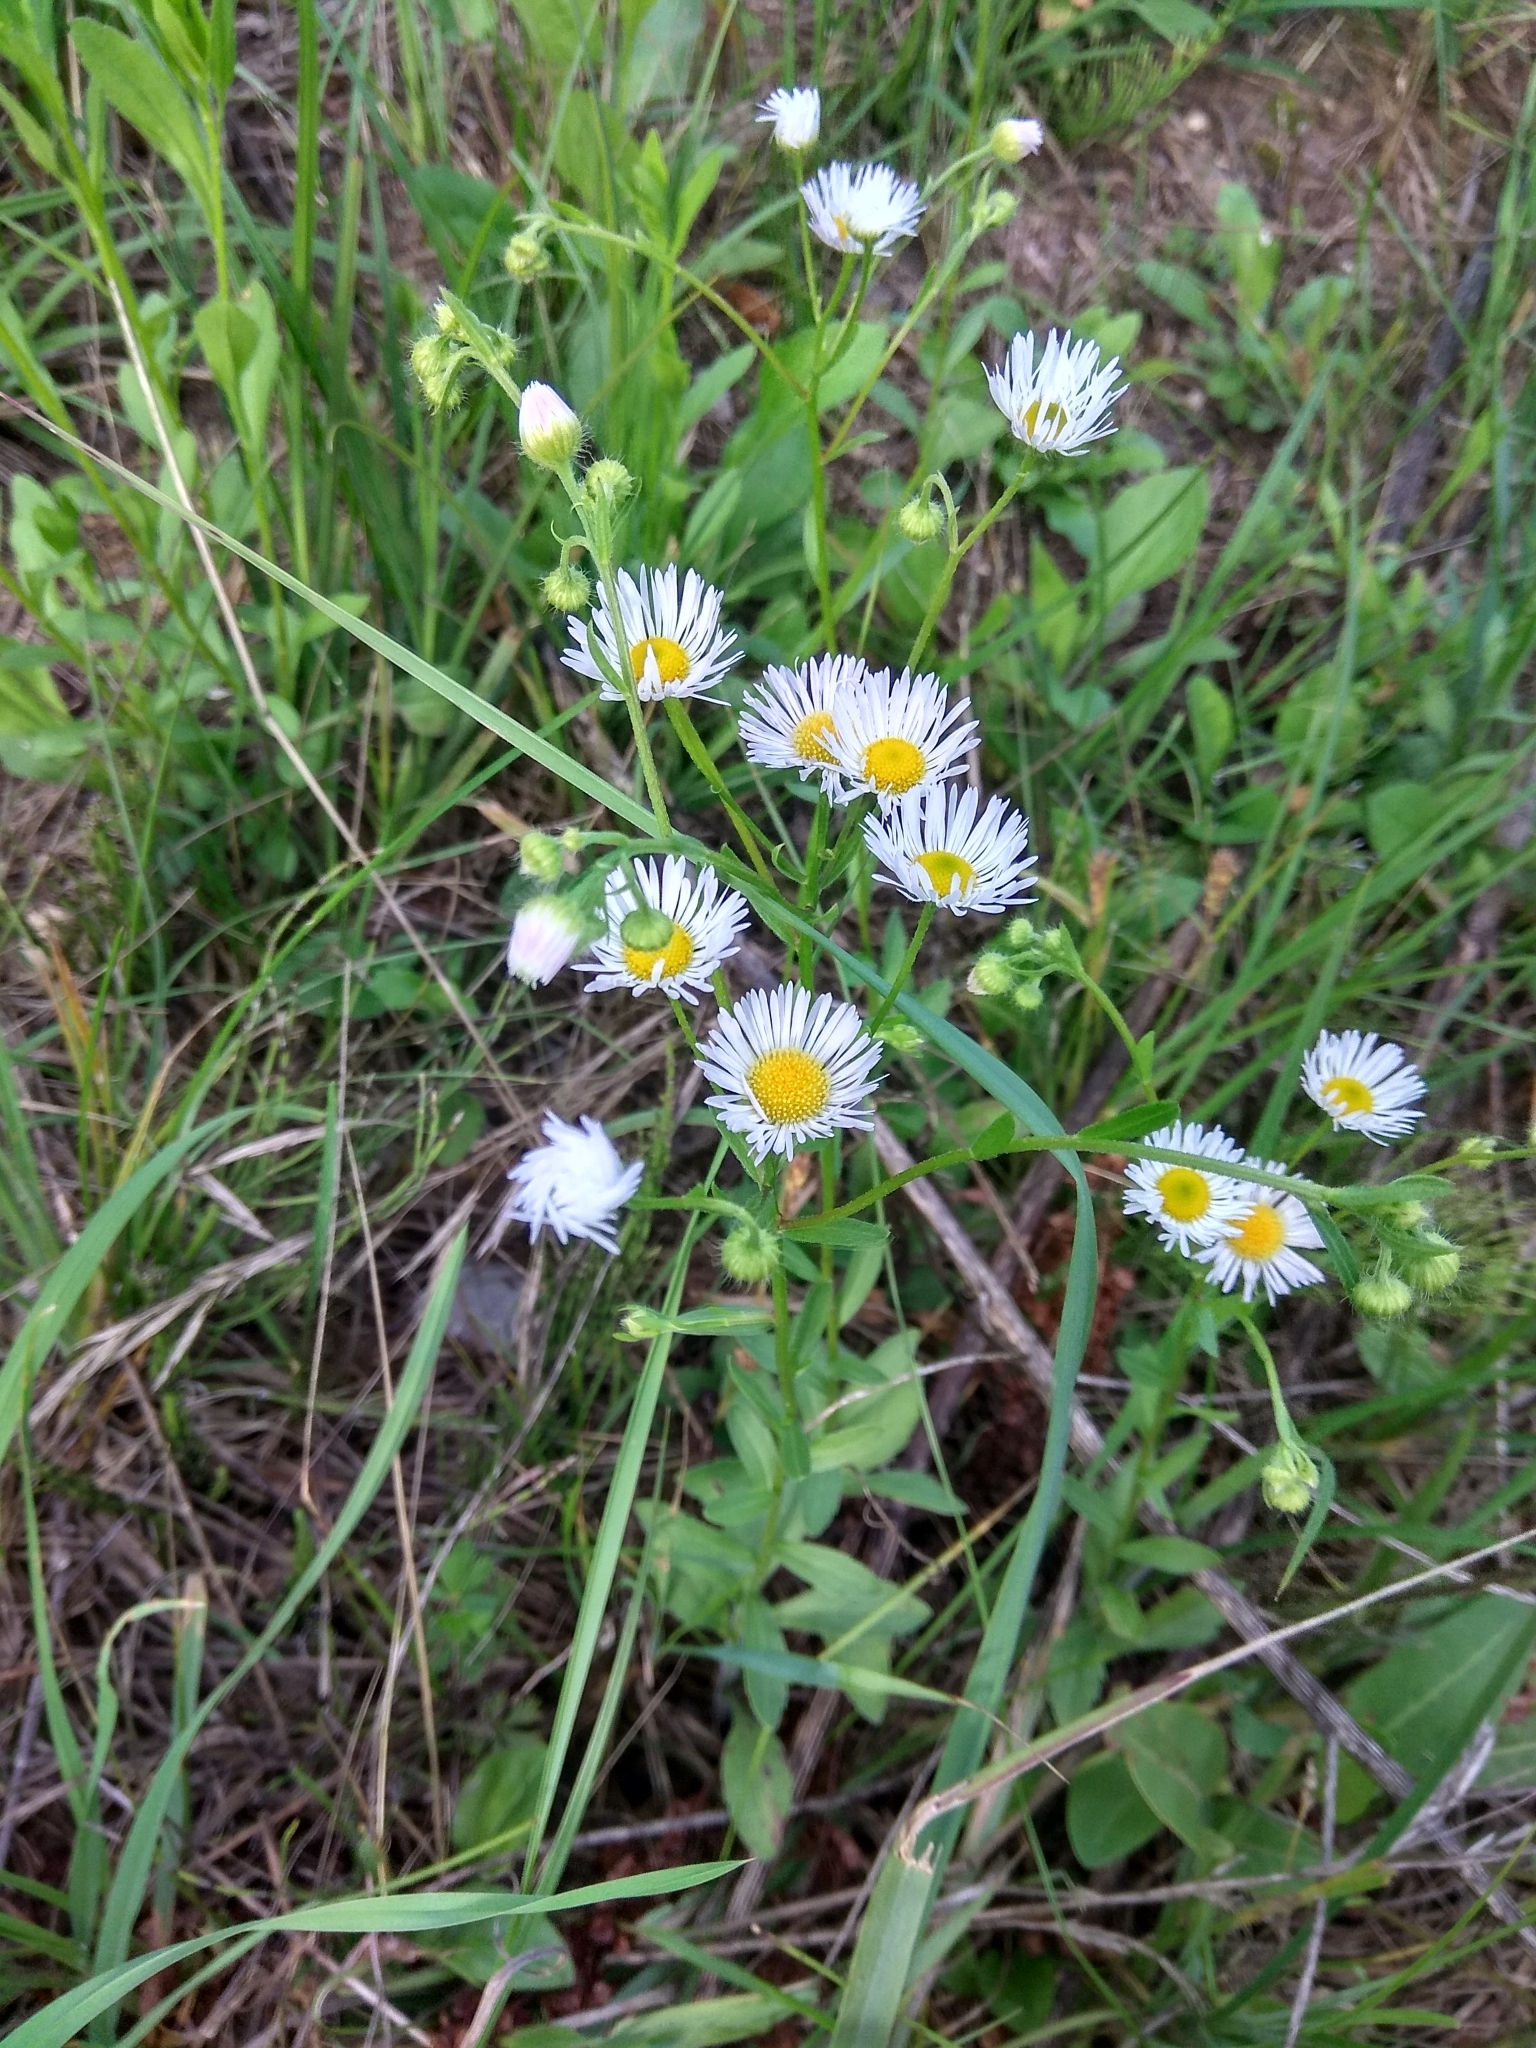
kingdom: Plantae
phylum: Tracheophyta
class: Magnoliopsida
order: Asterales
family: Asteraceae
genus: Erigeron
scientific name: Erigeron annuus
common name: Tall fleabane
